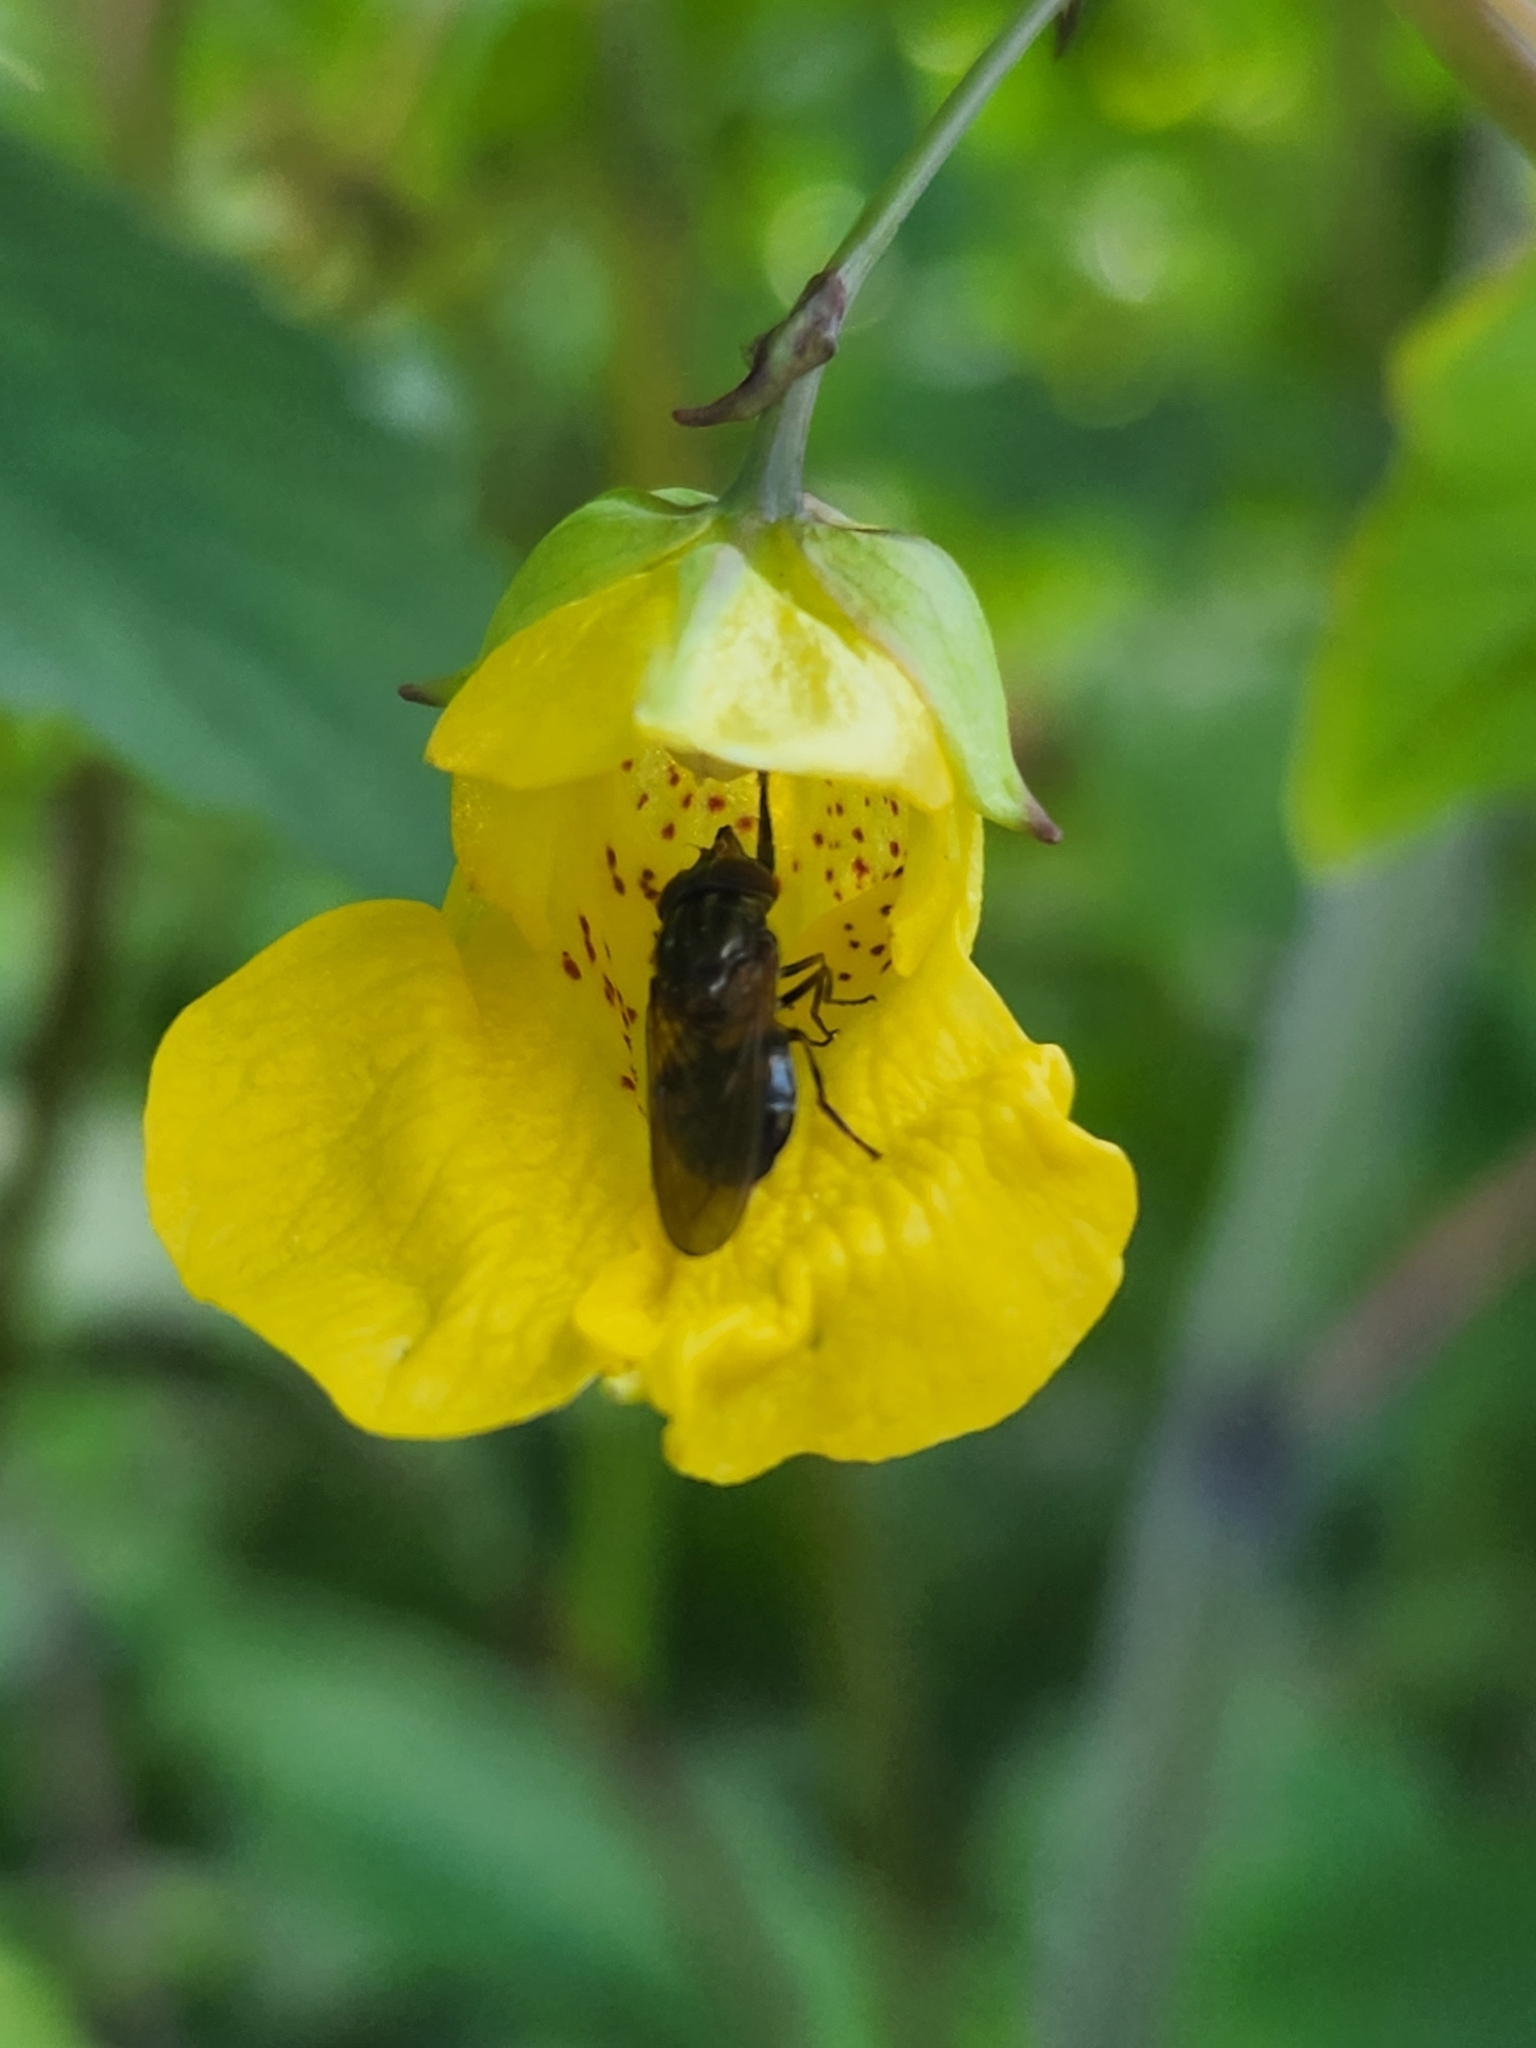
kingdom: Animalia
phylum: Arthropoda
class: Insecta
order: Diptera
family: Syrphidae
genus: Rhingia
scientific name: Rhingia nasica
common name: American snout fly
